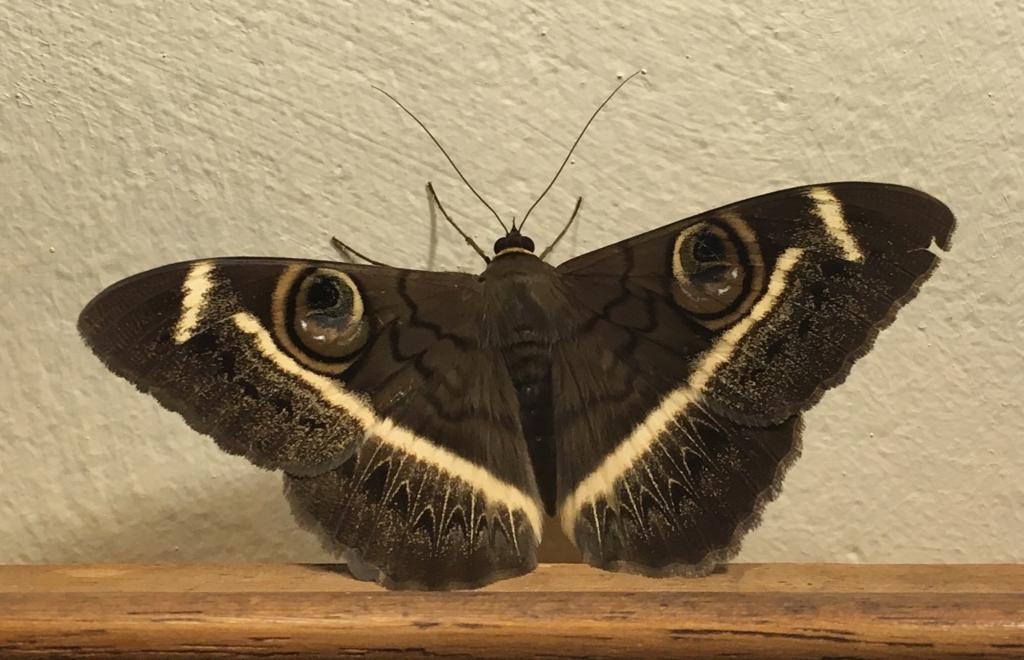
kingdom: Animalia
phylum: Arthropoda
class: Insecta
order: Lepidoptera
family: Erebidae
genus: Cyligramma
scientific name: Cyligramma latona
